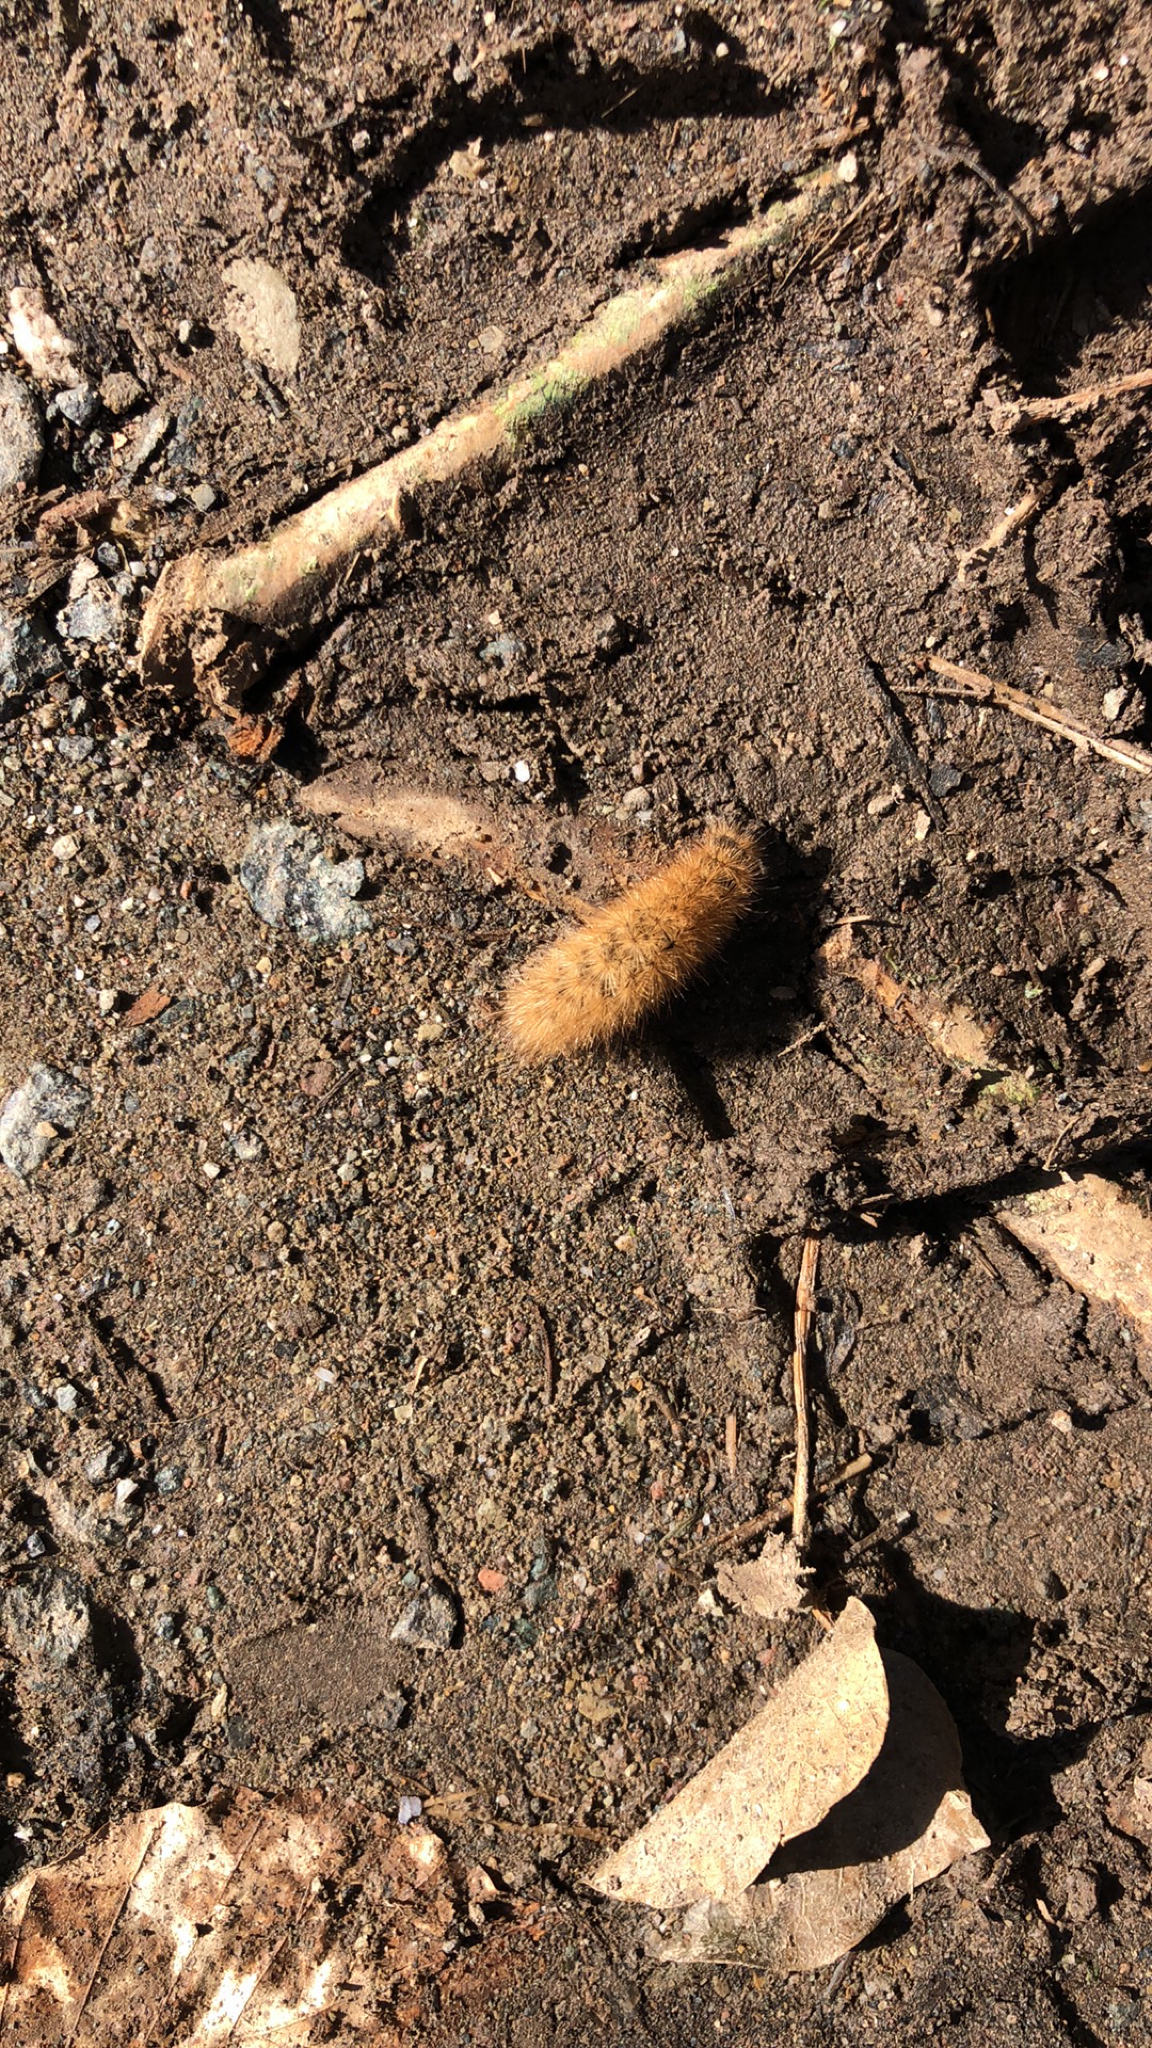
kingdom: Animalia
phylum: Arthropoda
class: Insecta
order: Lepidoptera
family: Erebidae
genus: Phragmatobia
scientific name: Phragmatobia fuliginosa
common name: Ruby tiger
